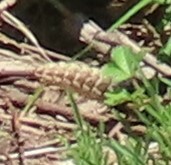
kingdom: Animalia
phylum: Chordata
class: Squamata
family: Viperidae
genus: Crotalus
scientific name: Crotalus horridus
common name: Timber rattlesnake
